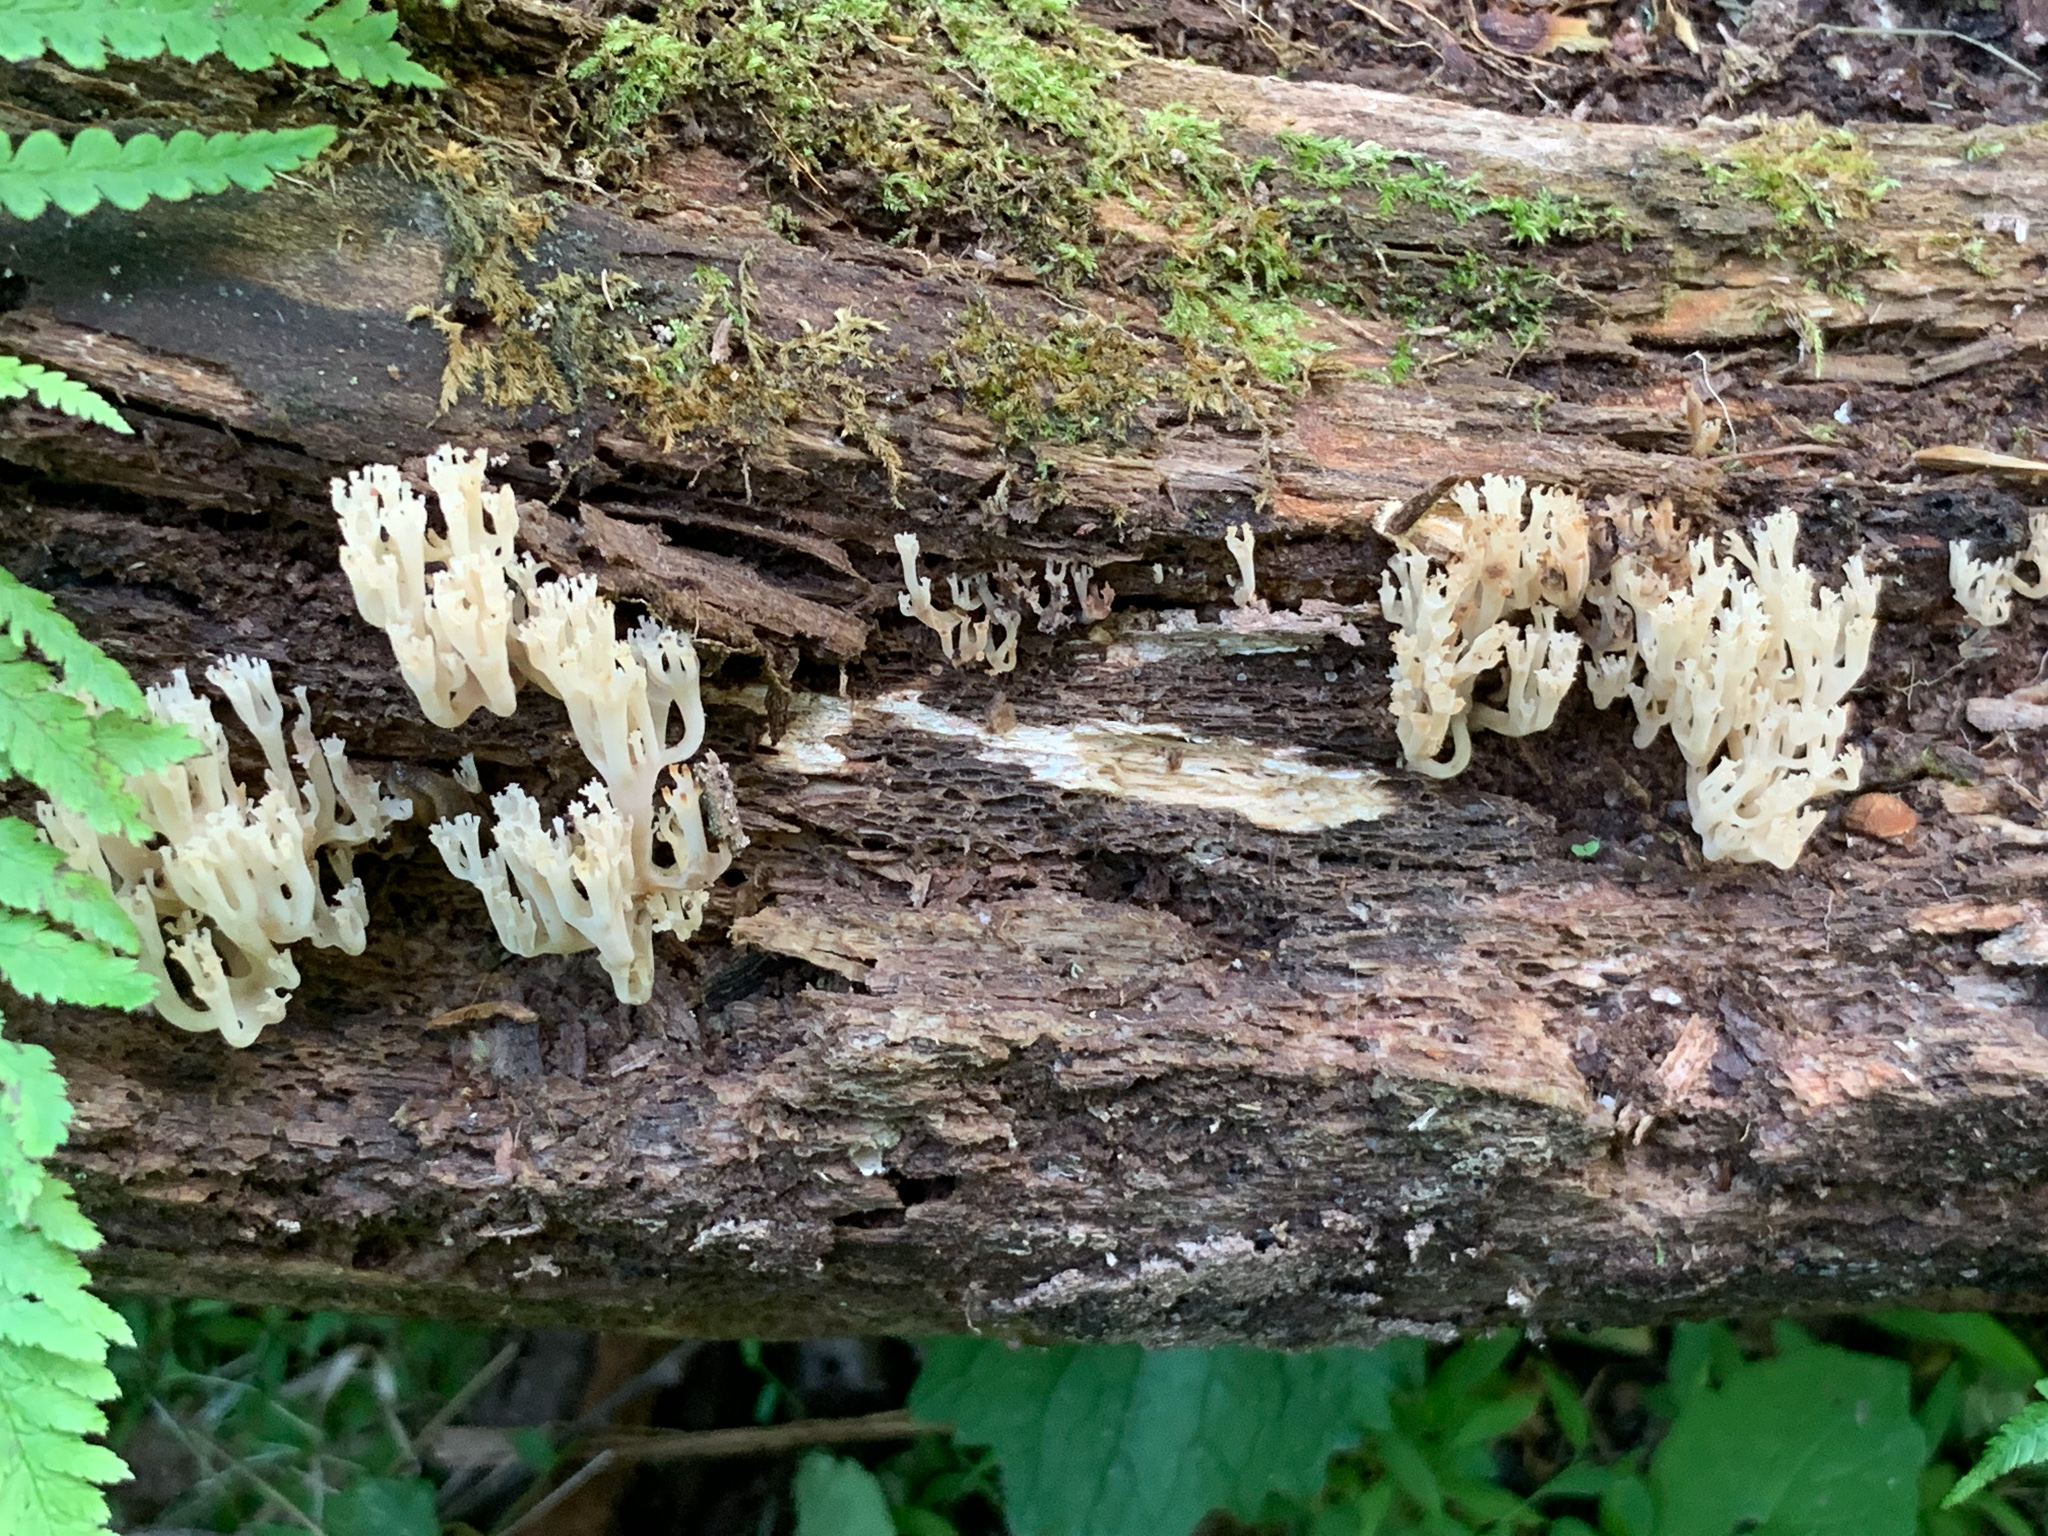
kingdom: Fungi
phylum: Basidiomycota
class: Agaricomycetes
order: Russulales
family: Auriscalpiaceae
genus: Artomyces
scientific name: Artomyces pyxidatus
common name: Crown-tipped coral fungus
